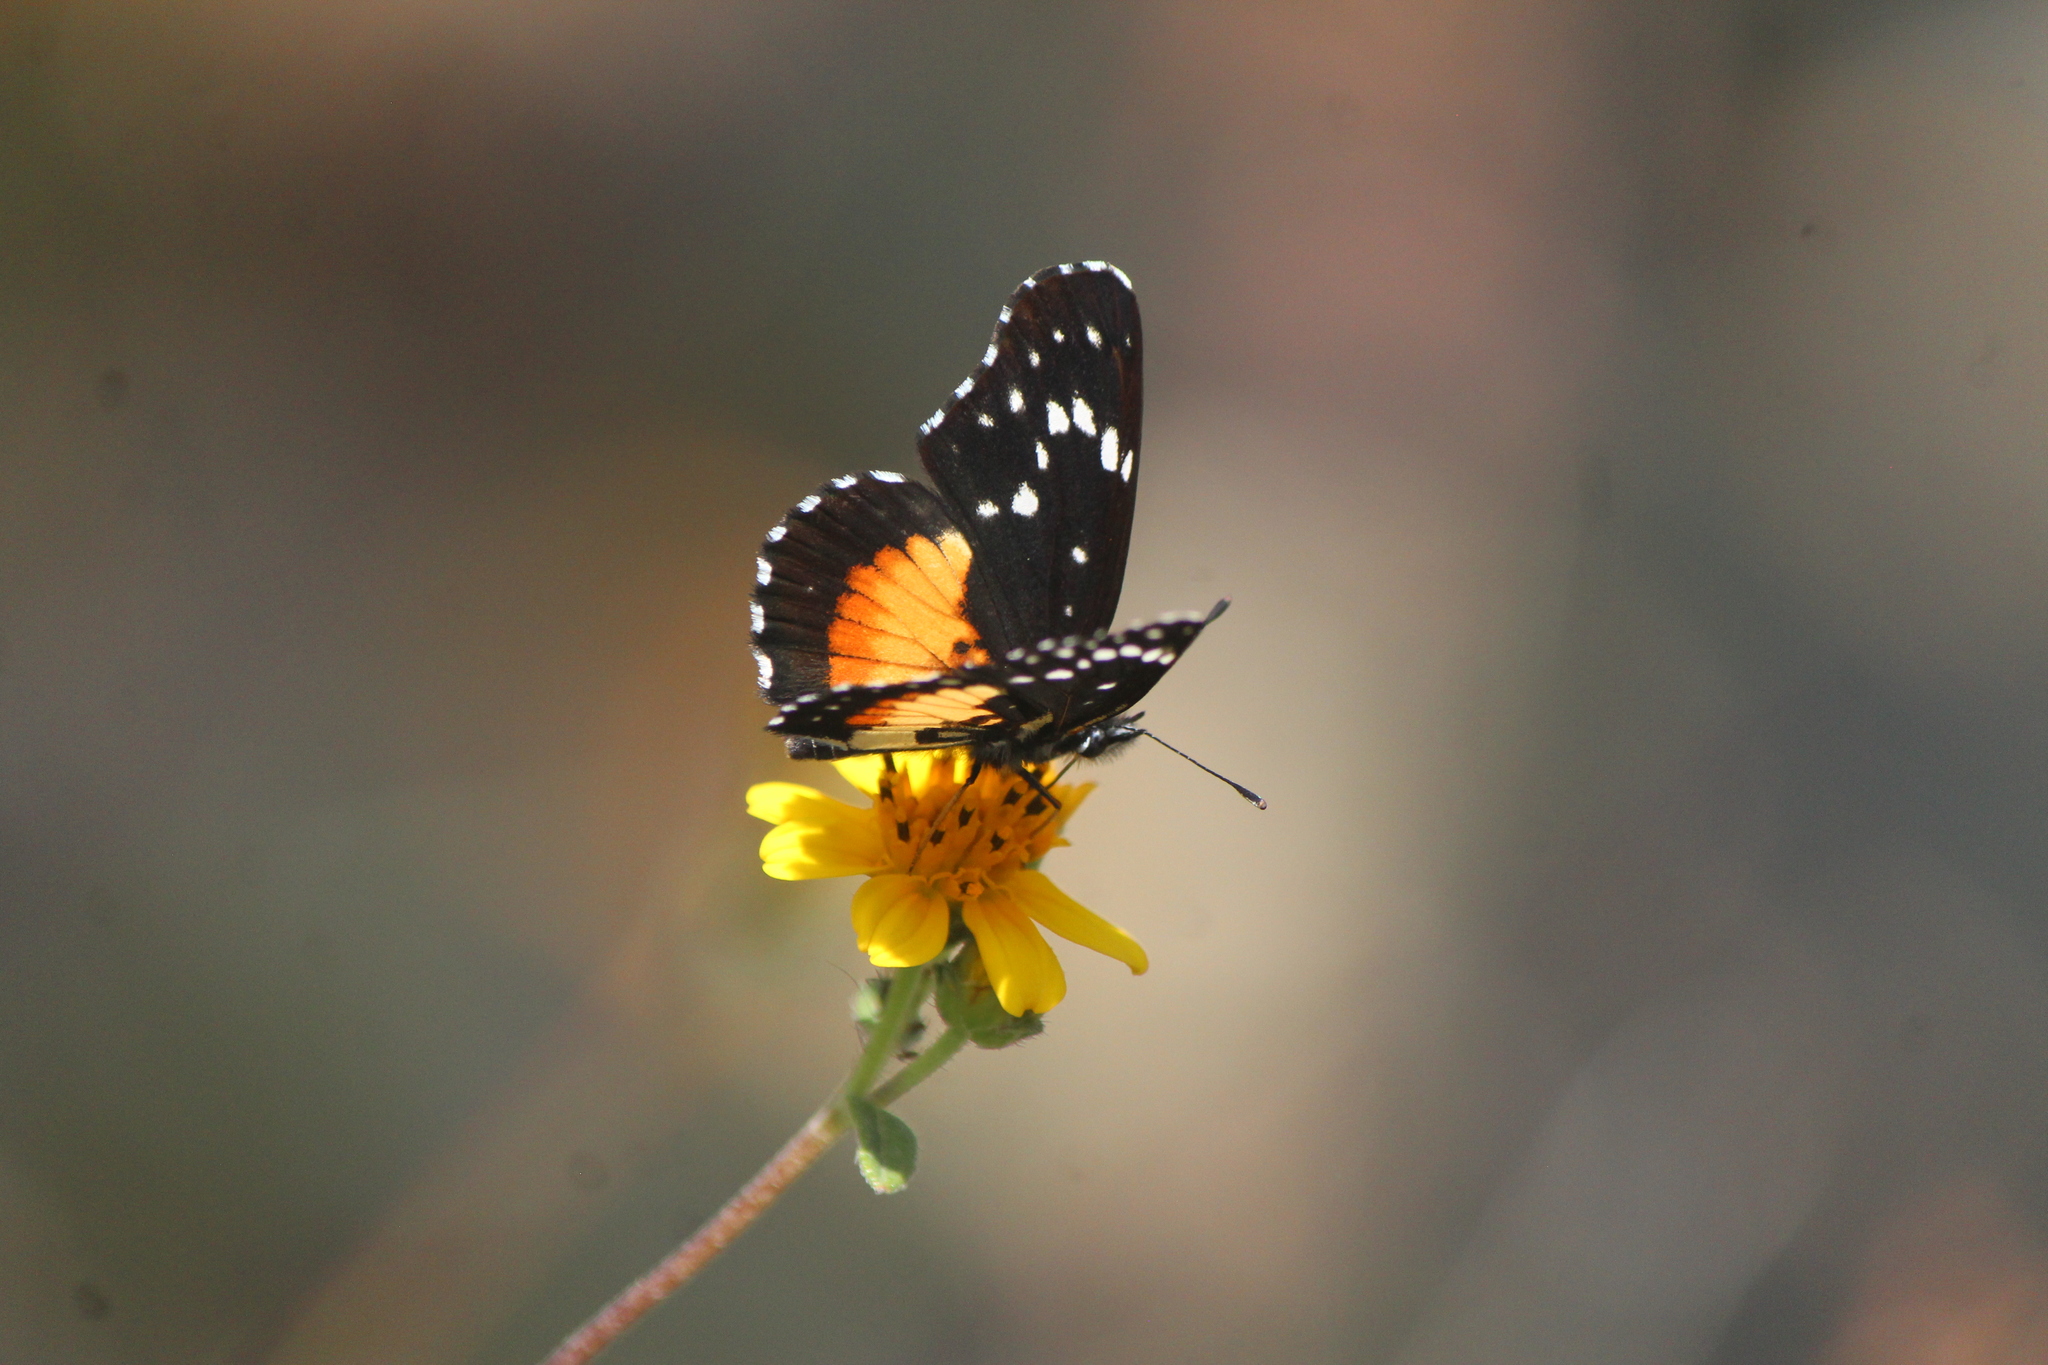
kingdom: Animalia
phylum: Arthropoda
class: Insecta
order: Lepidoptera
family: Nymphalidae
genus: Chlosyne
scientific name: Chlosyne rosita
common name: Rosita patch
